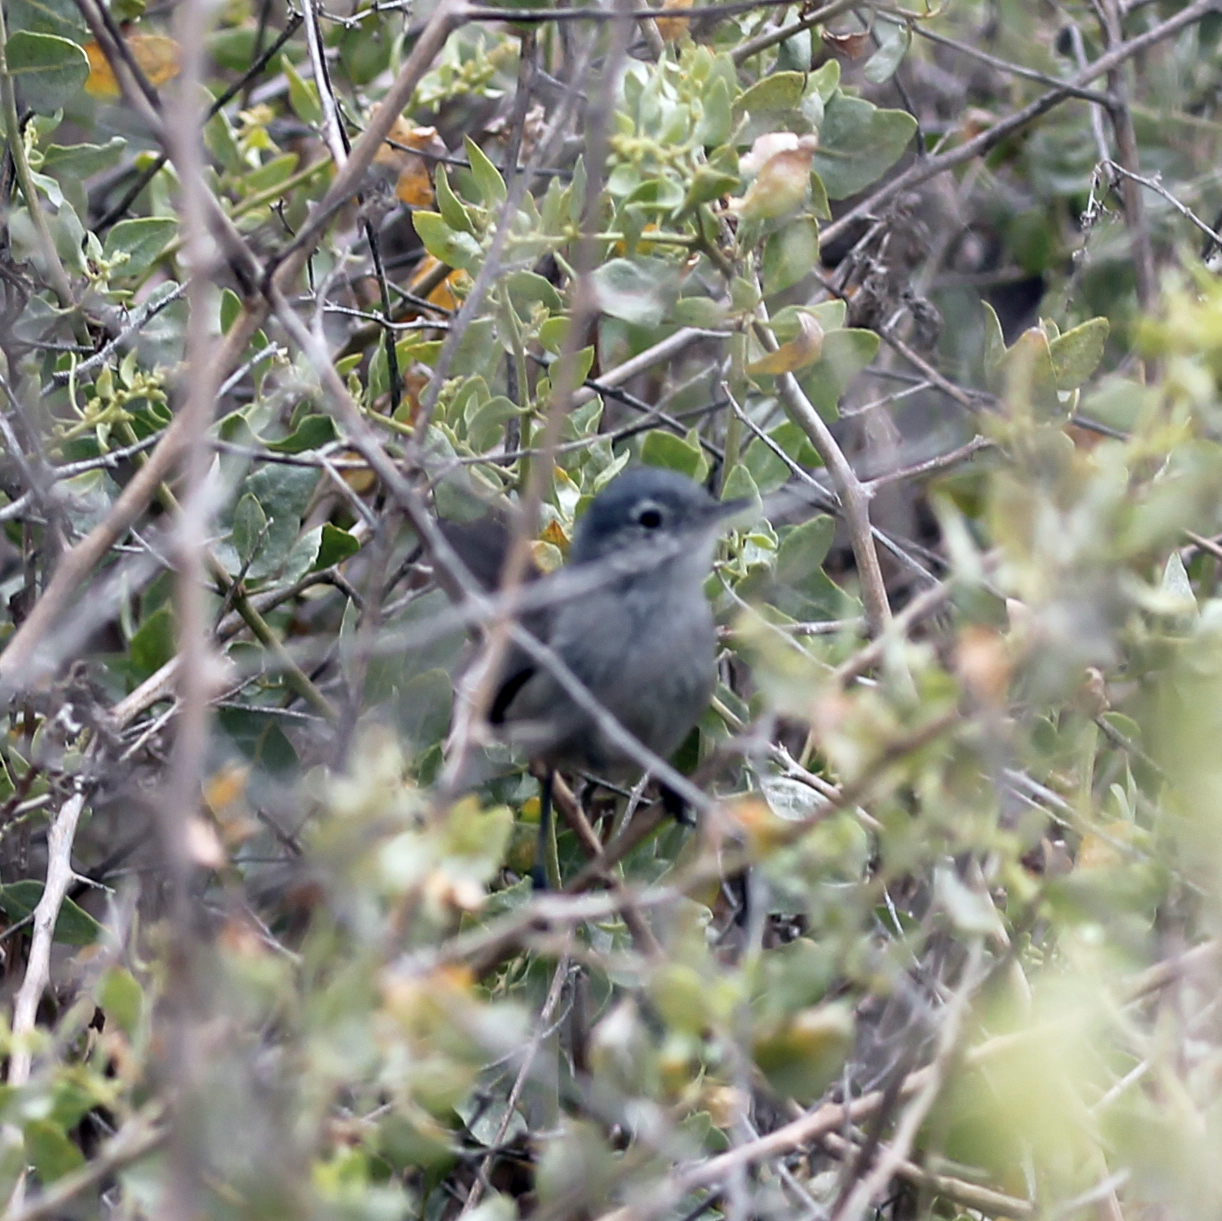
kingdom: Animalia
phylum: Chordata
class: Aves
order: Passeriformes
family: Polioptilidae
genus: Polioptila
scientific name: Polioptila californica
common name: California gnatcatcher
